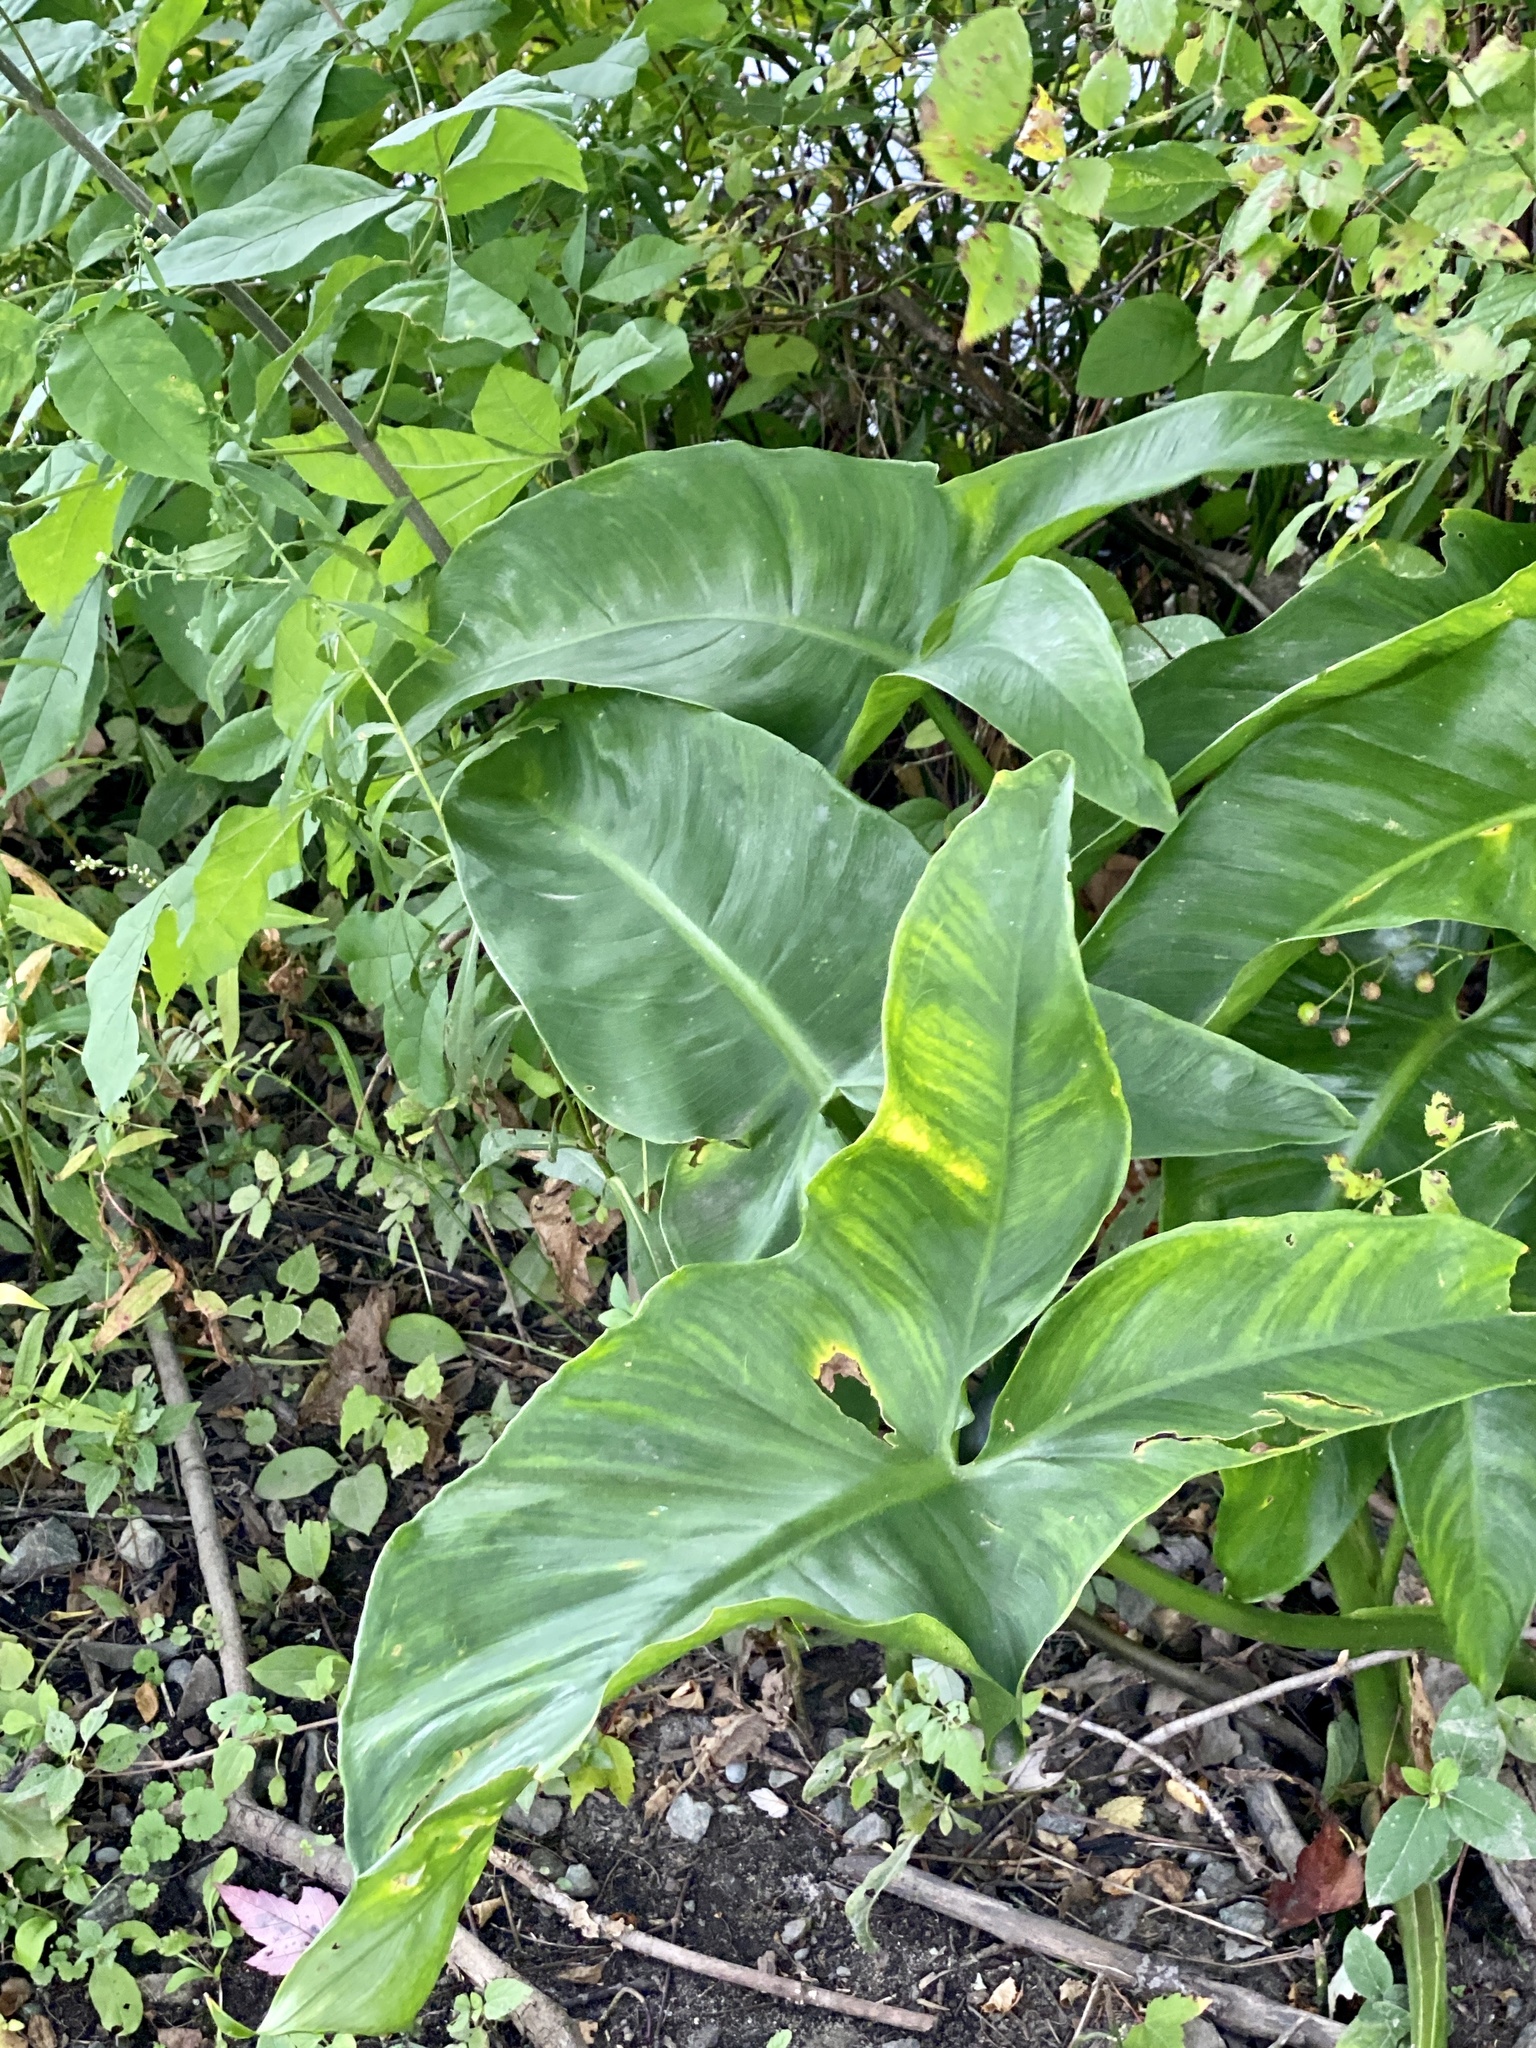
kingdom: Plantae
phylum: Tracheophyta
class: Liliopsida
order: Alismatales
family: Araceae
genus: Peltandra
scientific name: Peltandra virginica
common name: Arrow arum
